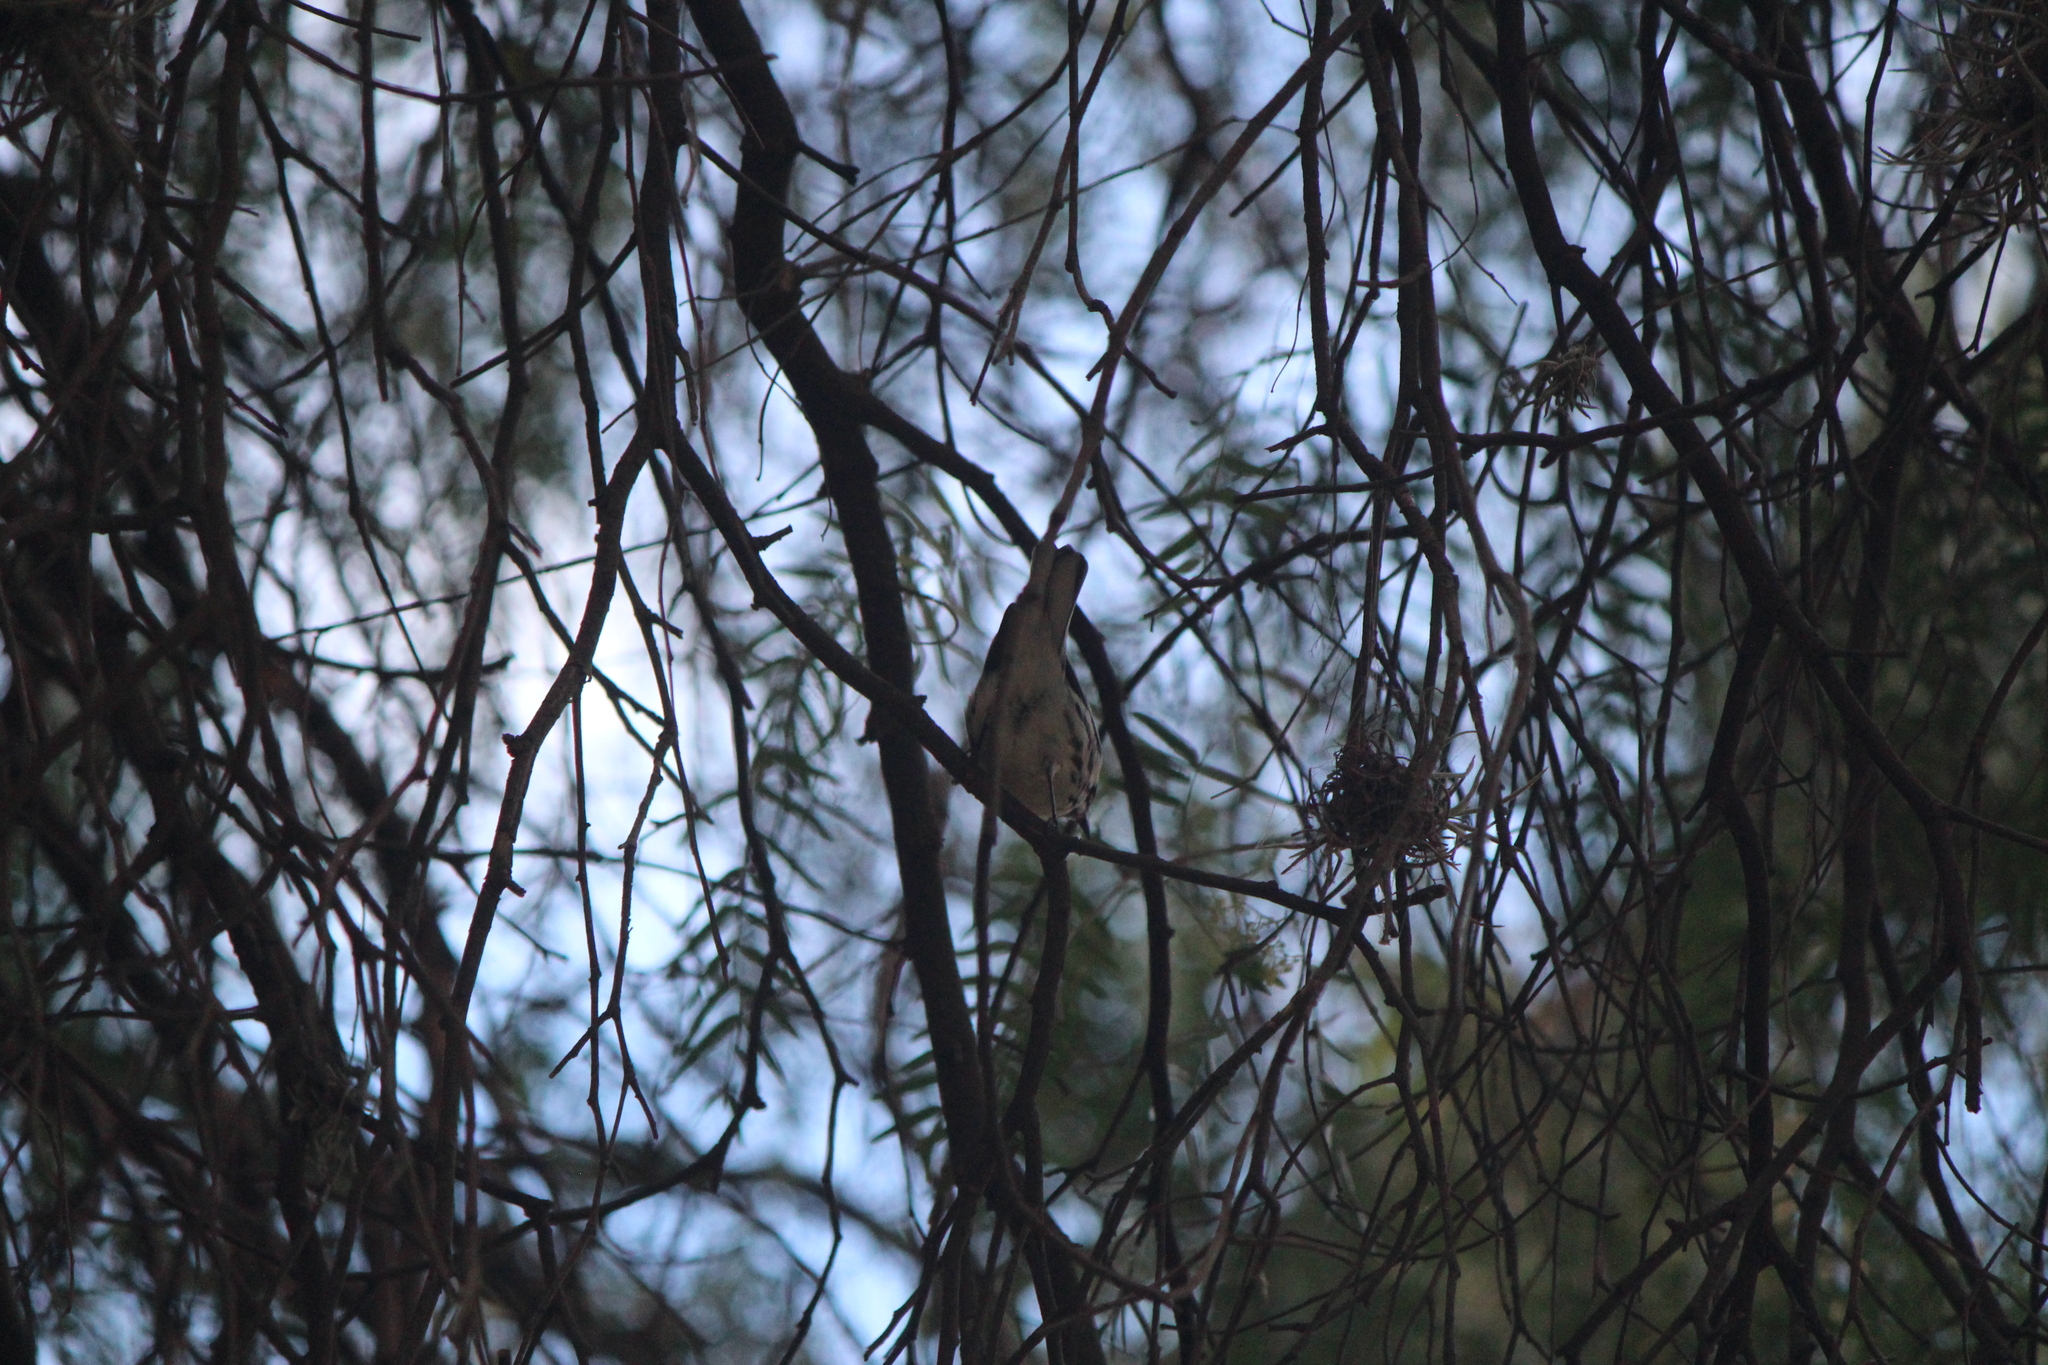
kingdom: Animalia
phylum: Chordata
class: Aves
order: Passeriformes
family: Parulidae
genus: Setophaga
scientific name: Setophaga nigrescens
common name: Black-throated gray warbler
